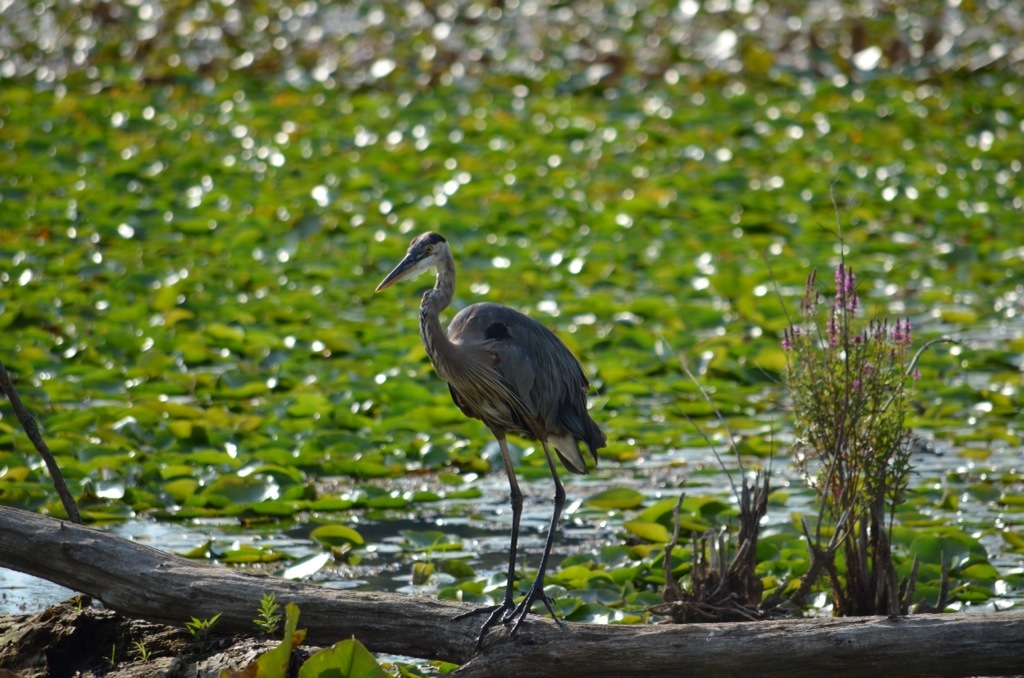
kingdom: Animalia
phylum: Chordata
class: Aves
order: Pelecaniformes
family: Ardeidae
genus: Ardea
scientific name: Ardea herodias
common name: Great blue heron
